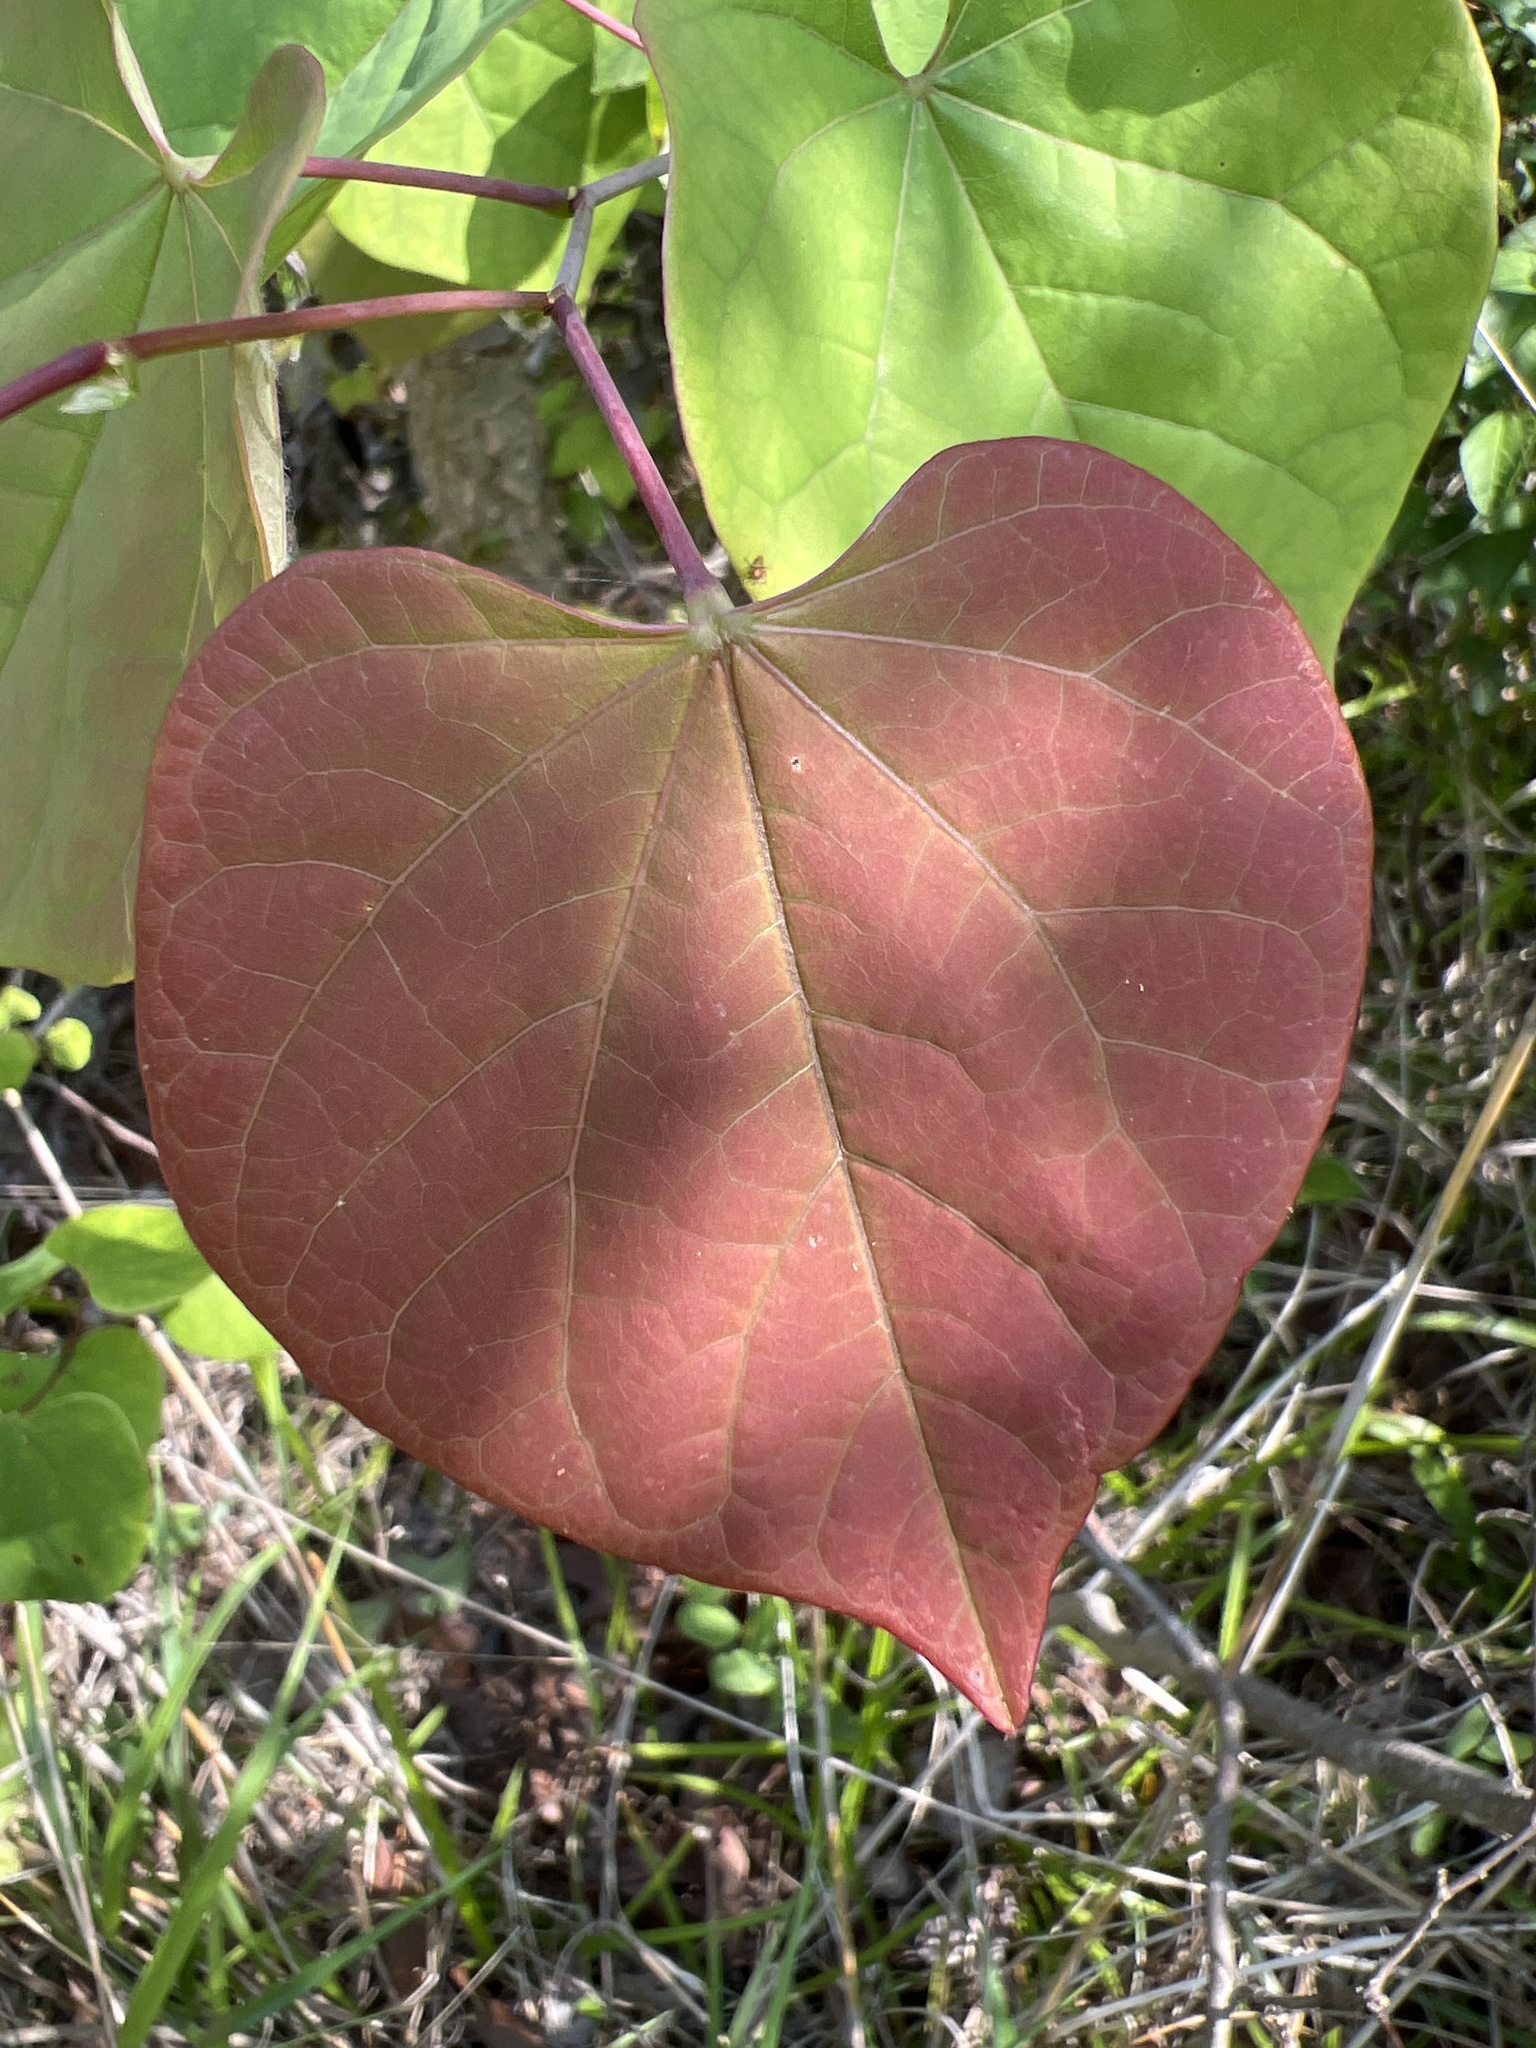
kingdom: Plantae
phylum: Tracheophyta
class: Magnoliopsida
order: Fabales
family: Fabaceae
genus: Cercis
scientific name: Cercis canadensis
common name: Eastern redbud
